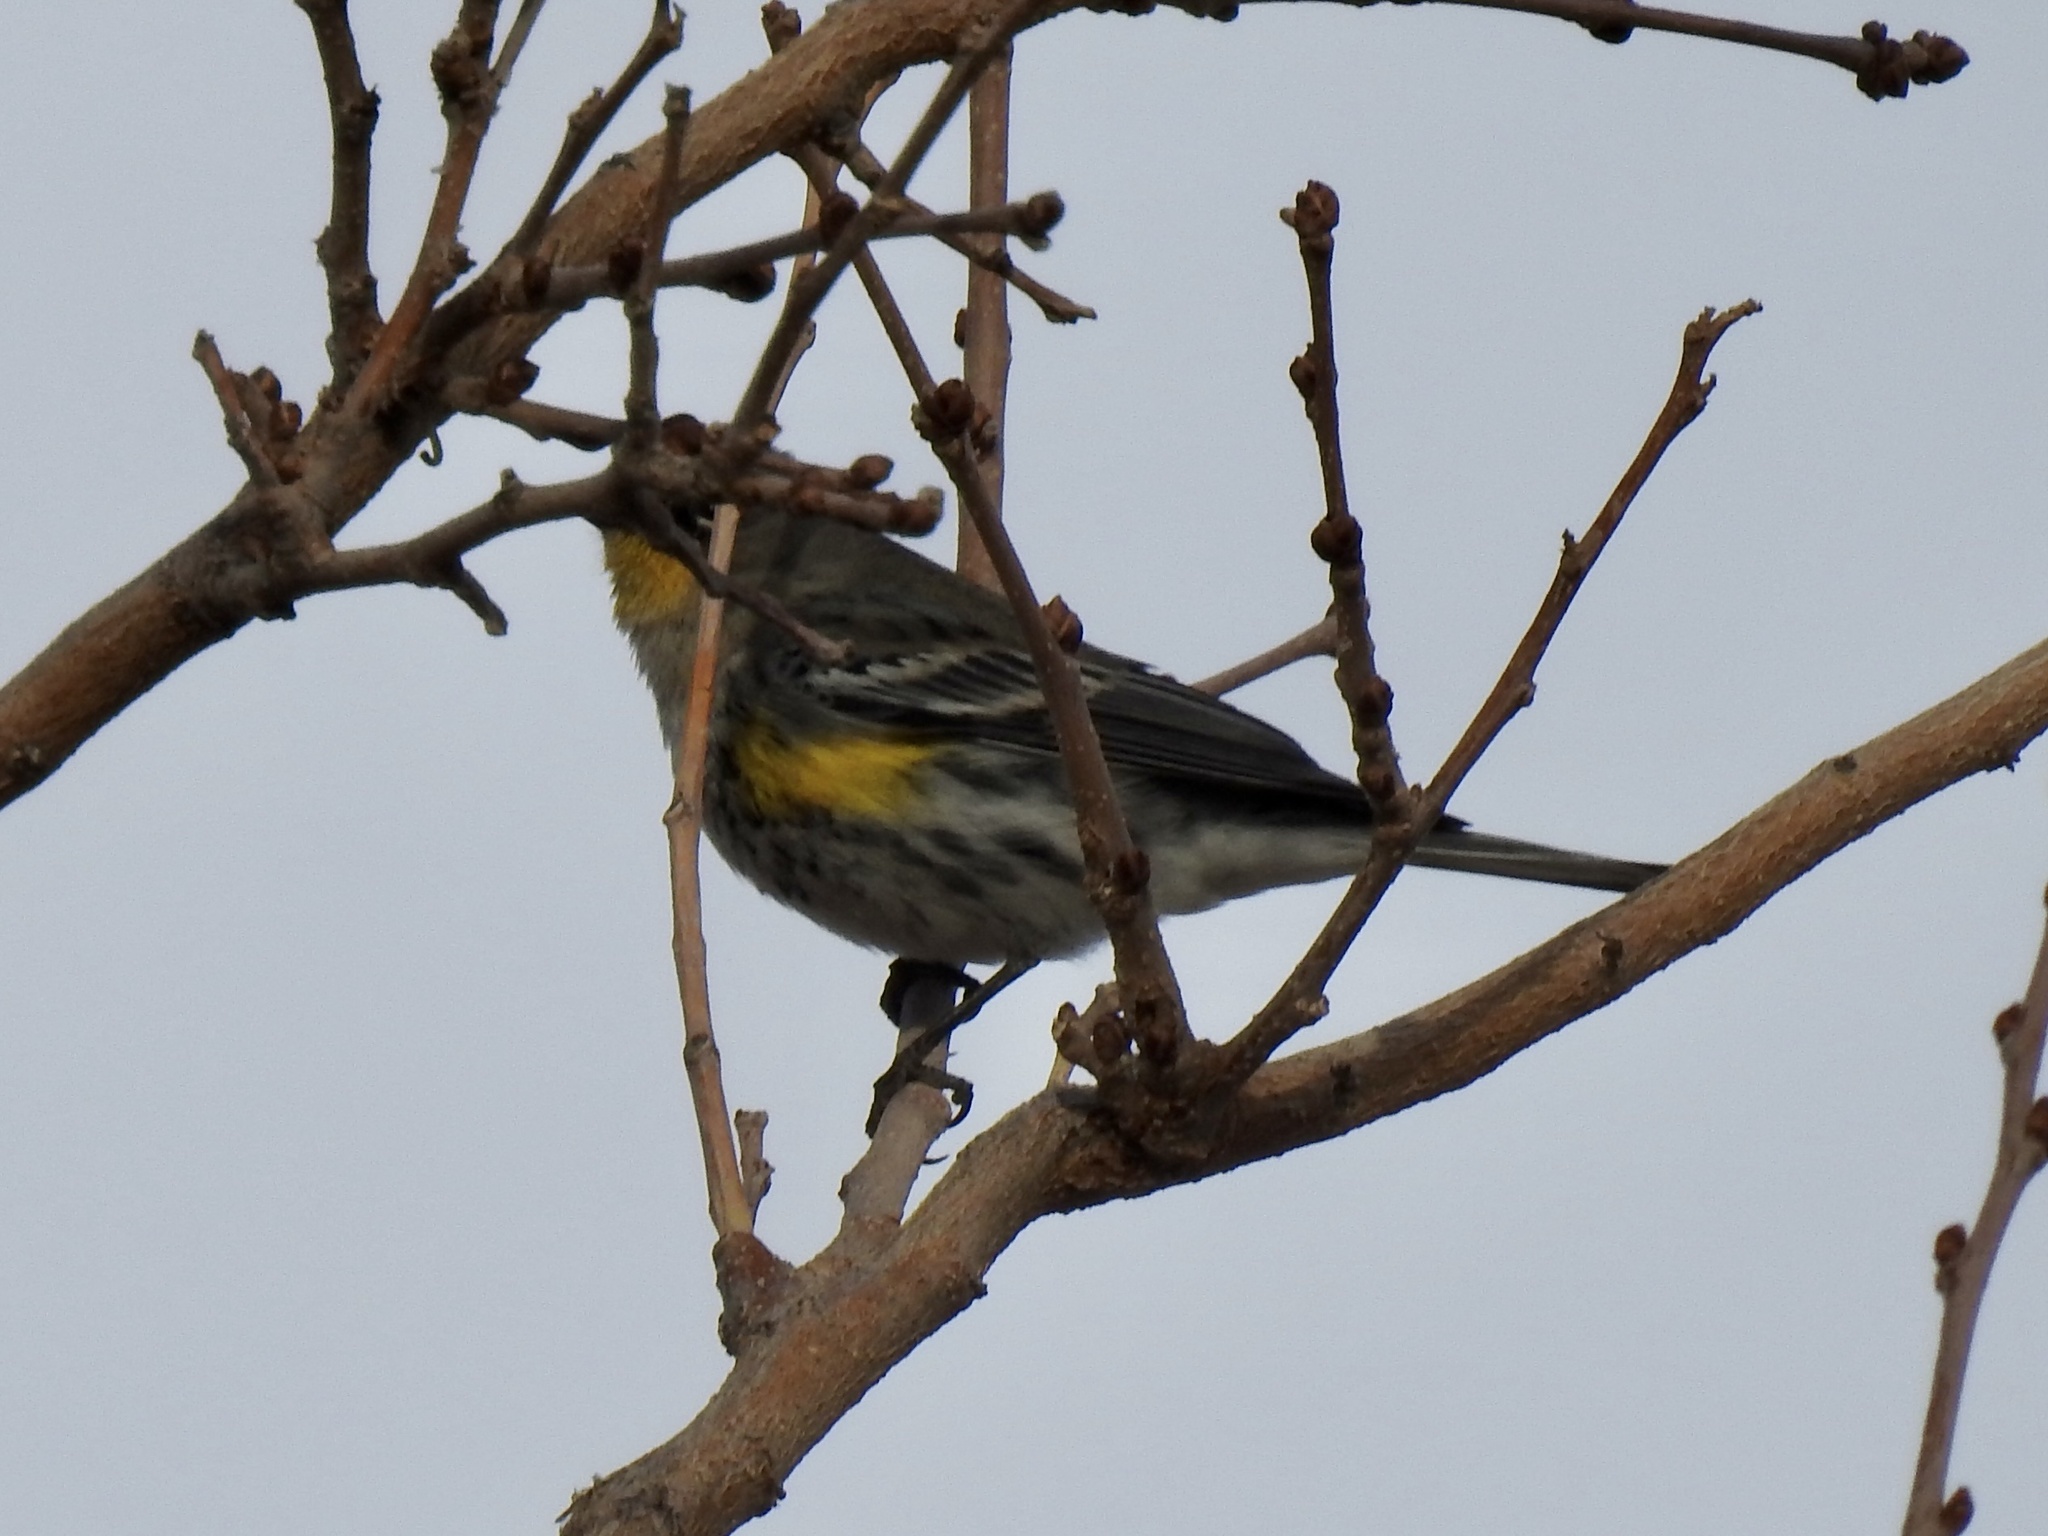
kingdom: Animalia
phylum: Chordata
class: Aves
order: Passeriformes
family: Parulidae
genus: Setophaga
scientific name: Setophaga coronata
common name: Myrtle warbler
